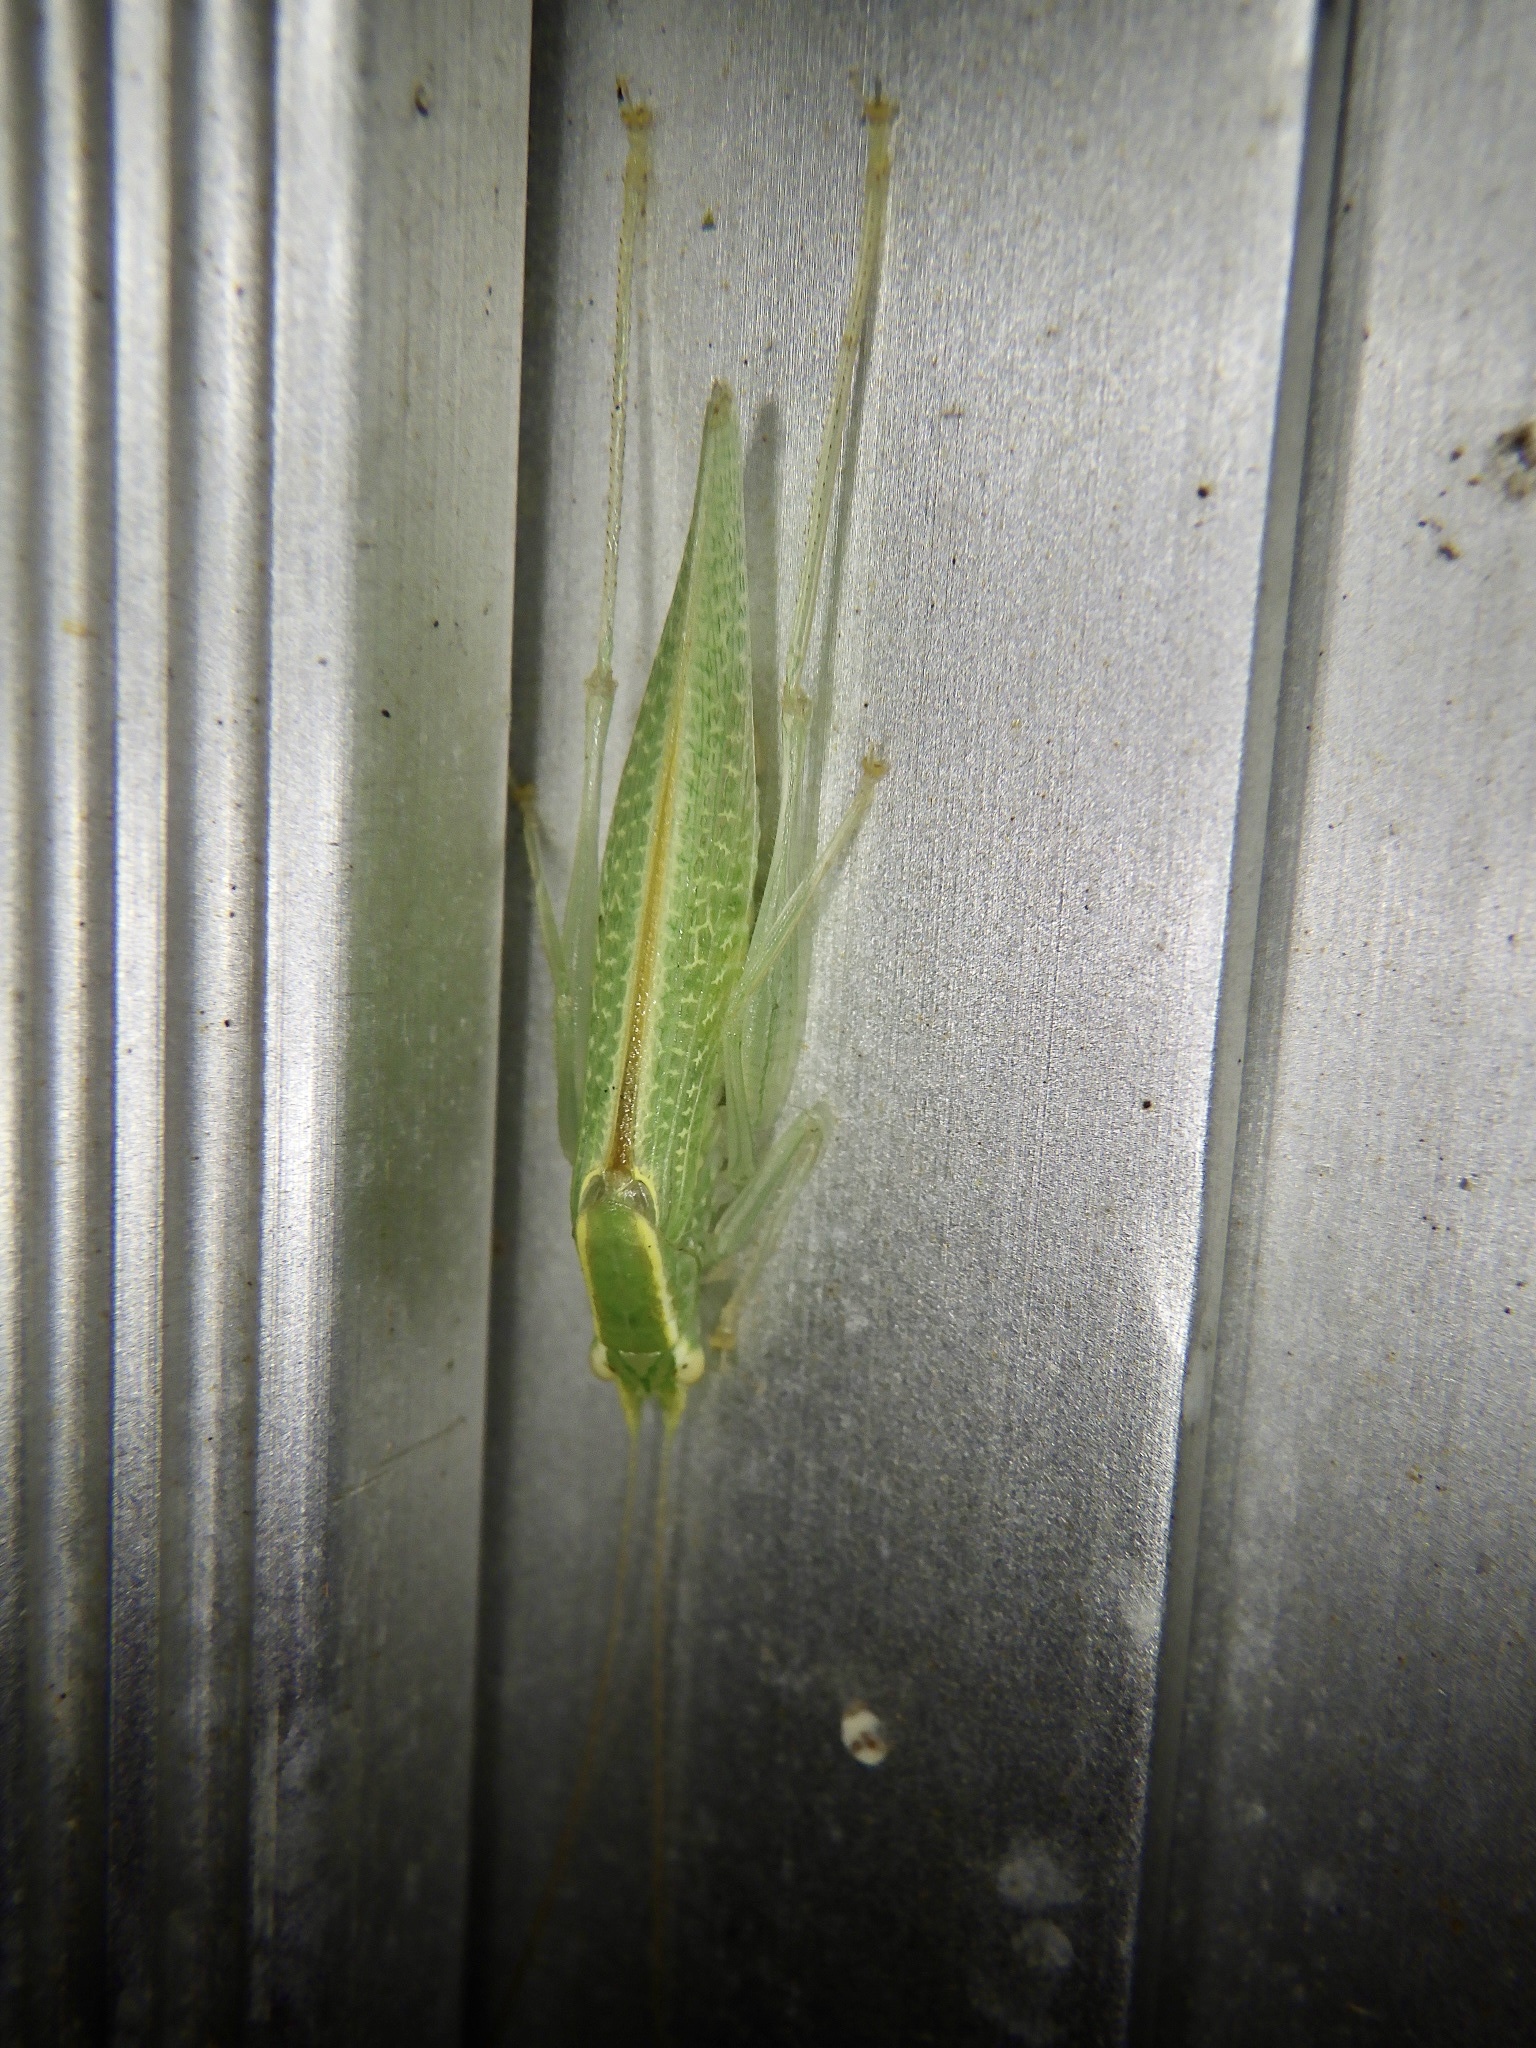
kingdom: Animalia
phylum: Arthropoda
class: Insecta
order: Orthoptera
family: Tettigoniidae
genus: Leptoteratura
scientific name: Leptoteratura albicorne
